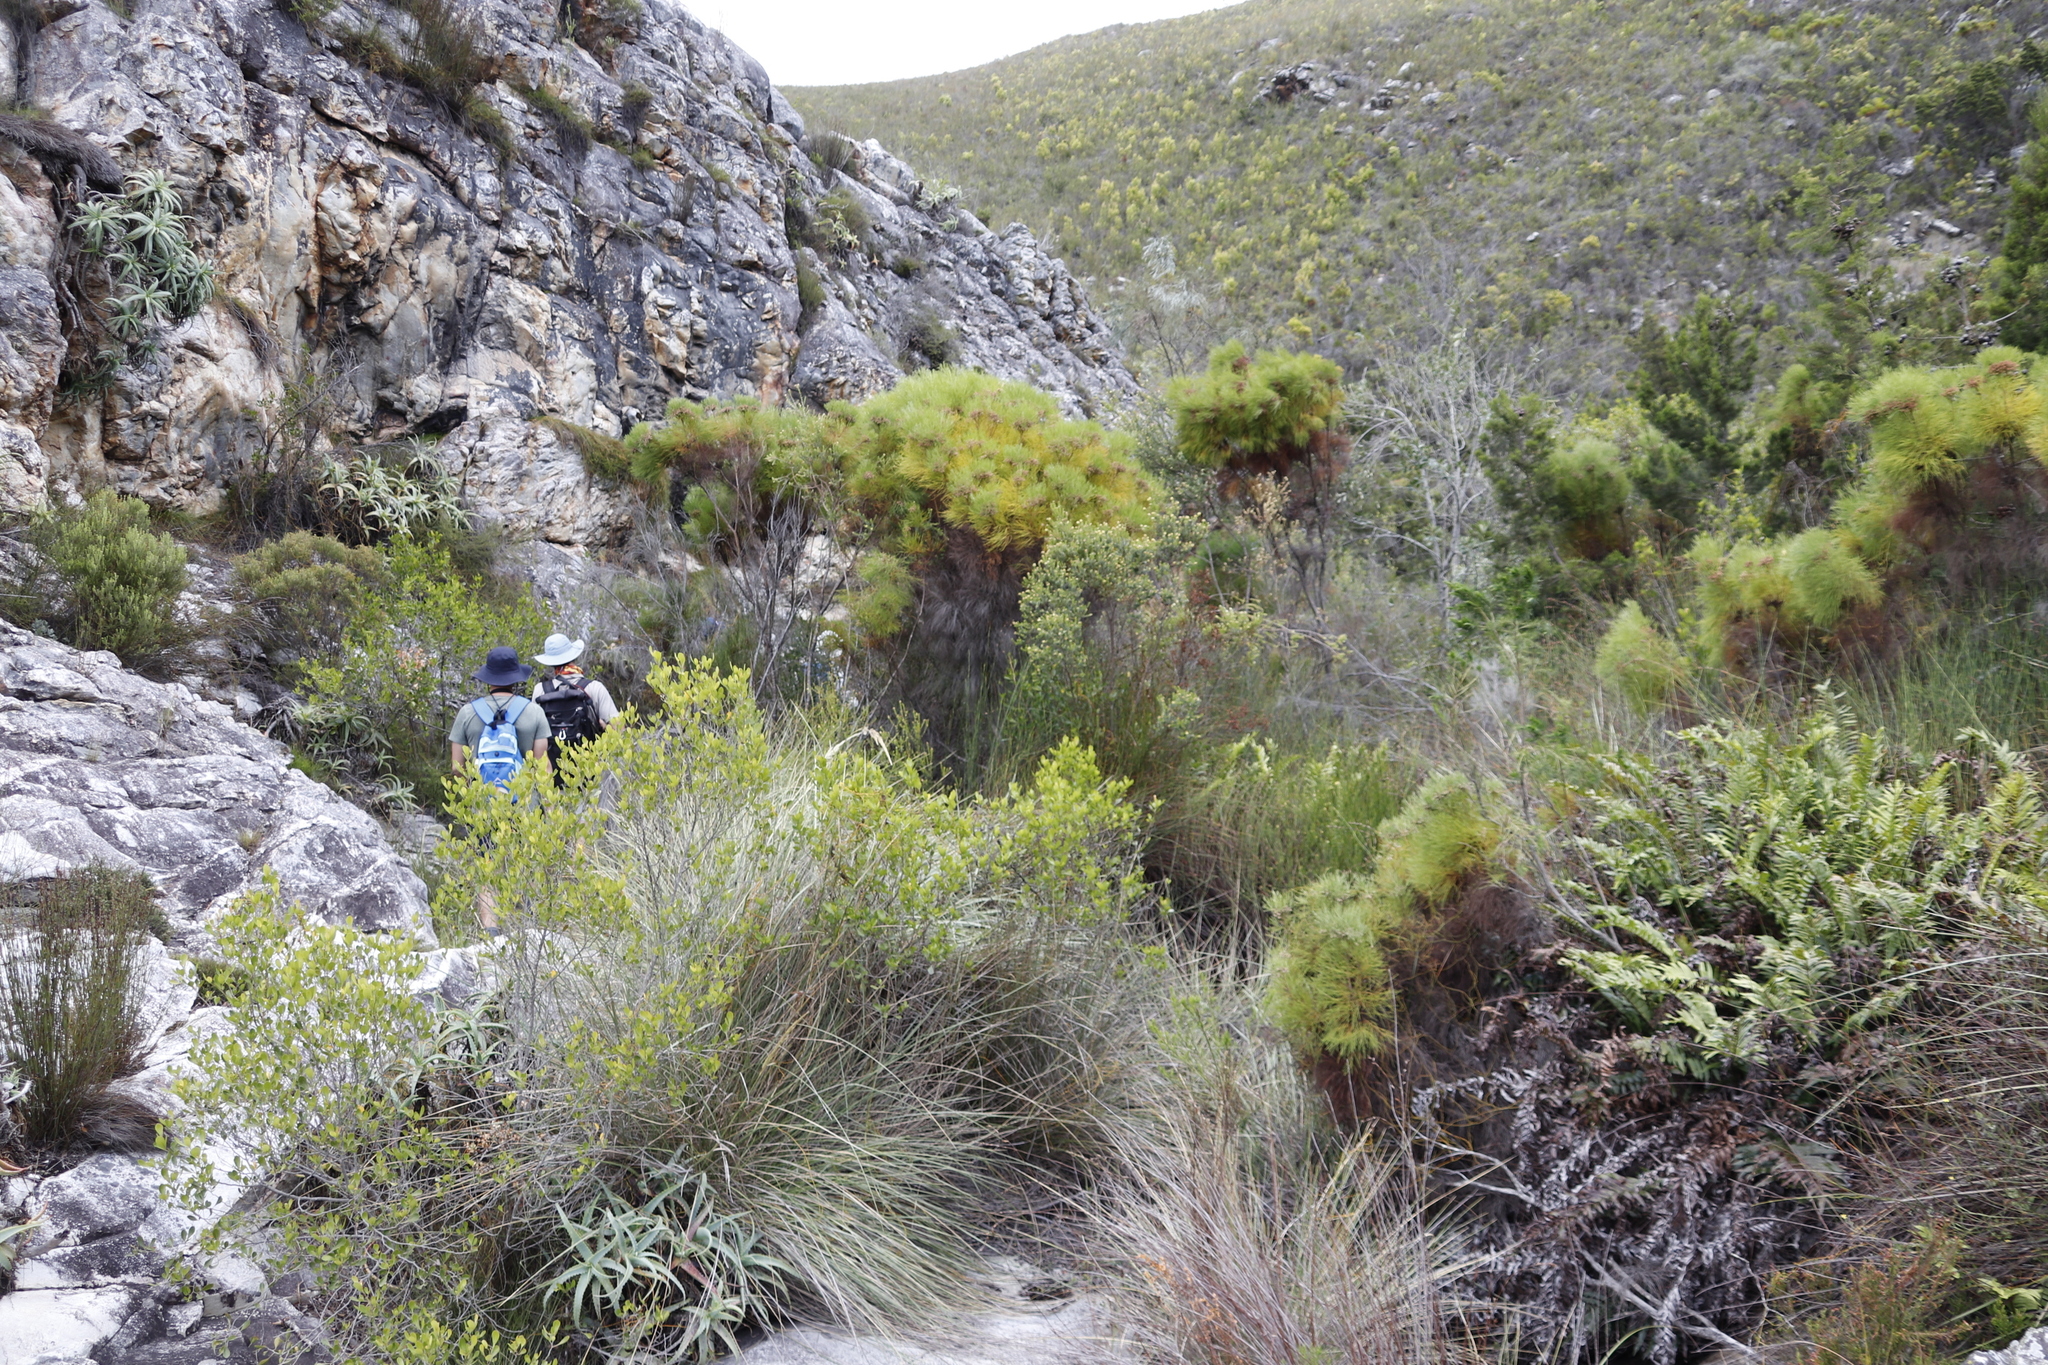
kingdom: Plantae
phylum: Tracheophyta
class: Magnoliopsida
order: Bruniales
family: Bruniaceae
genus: Berzelia
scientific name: Berzelia lanuginosa
